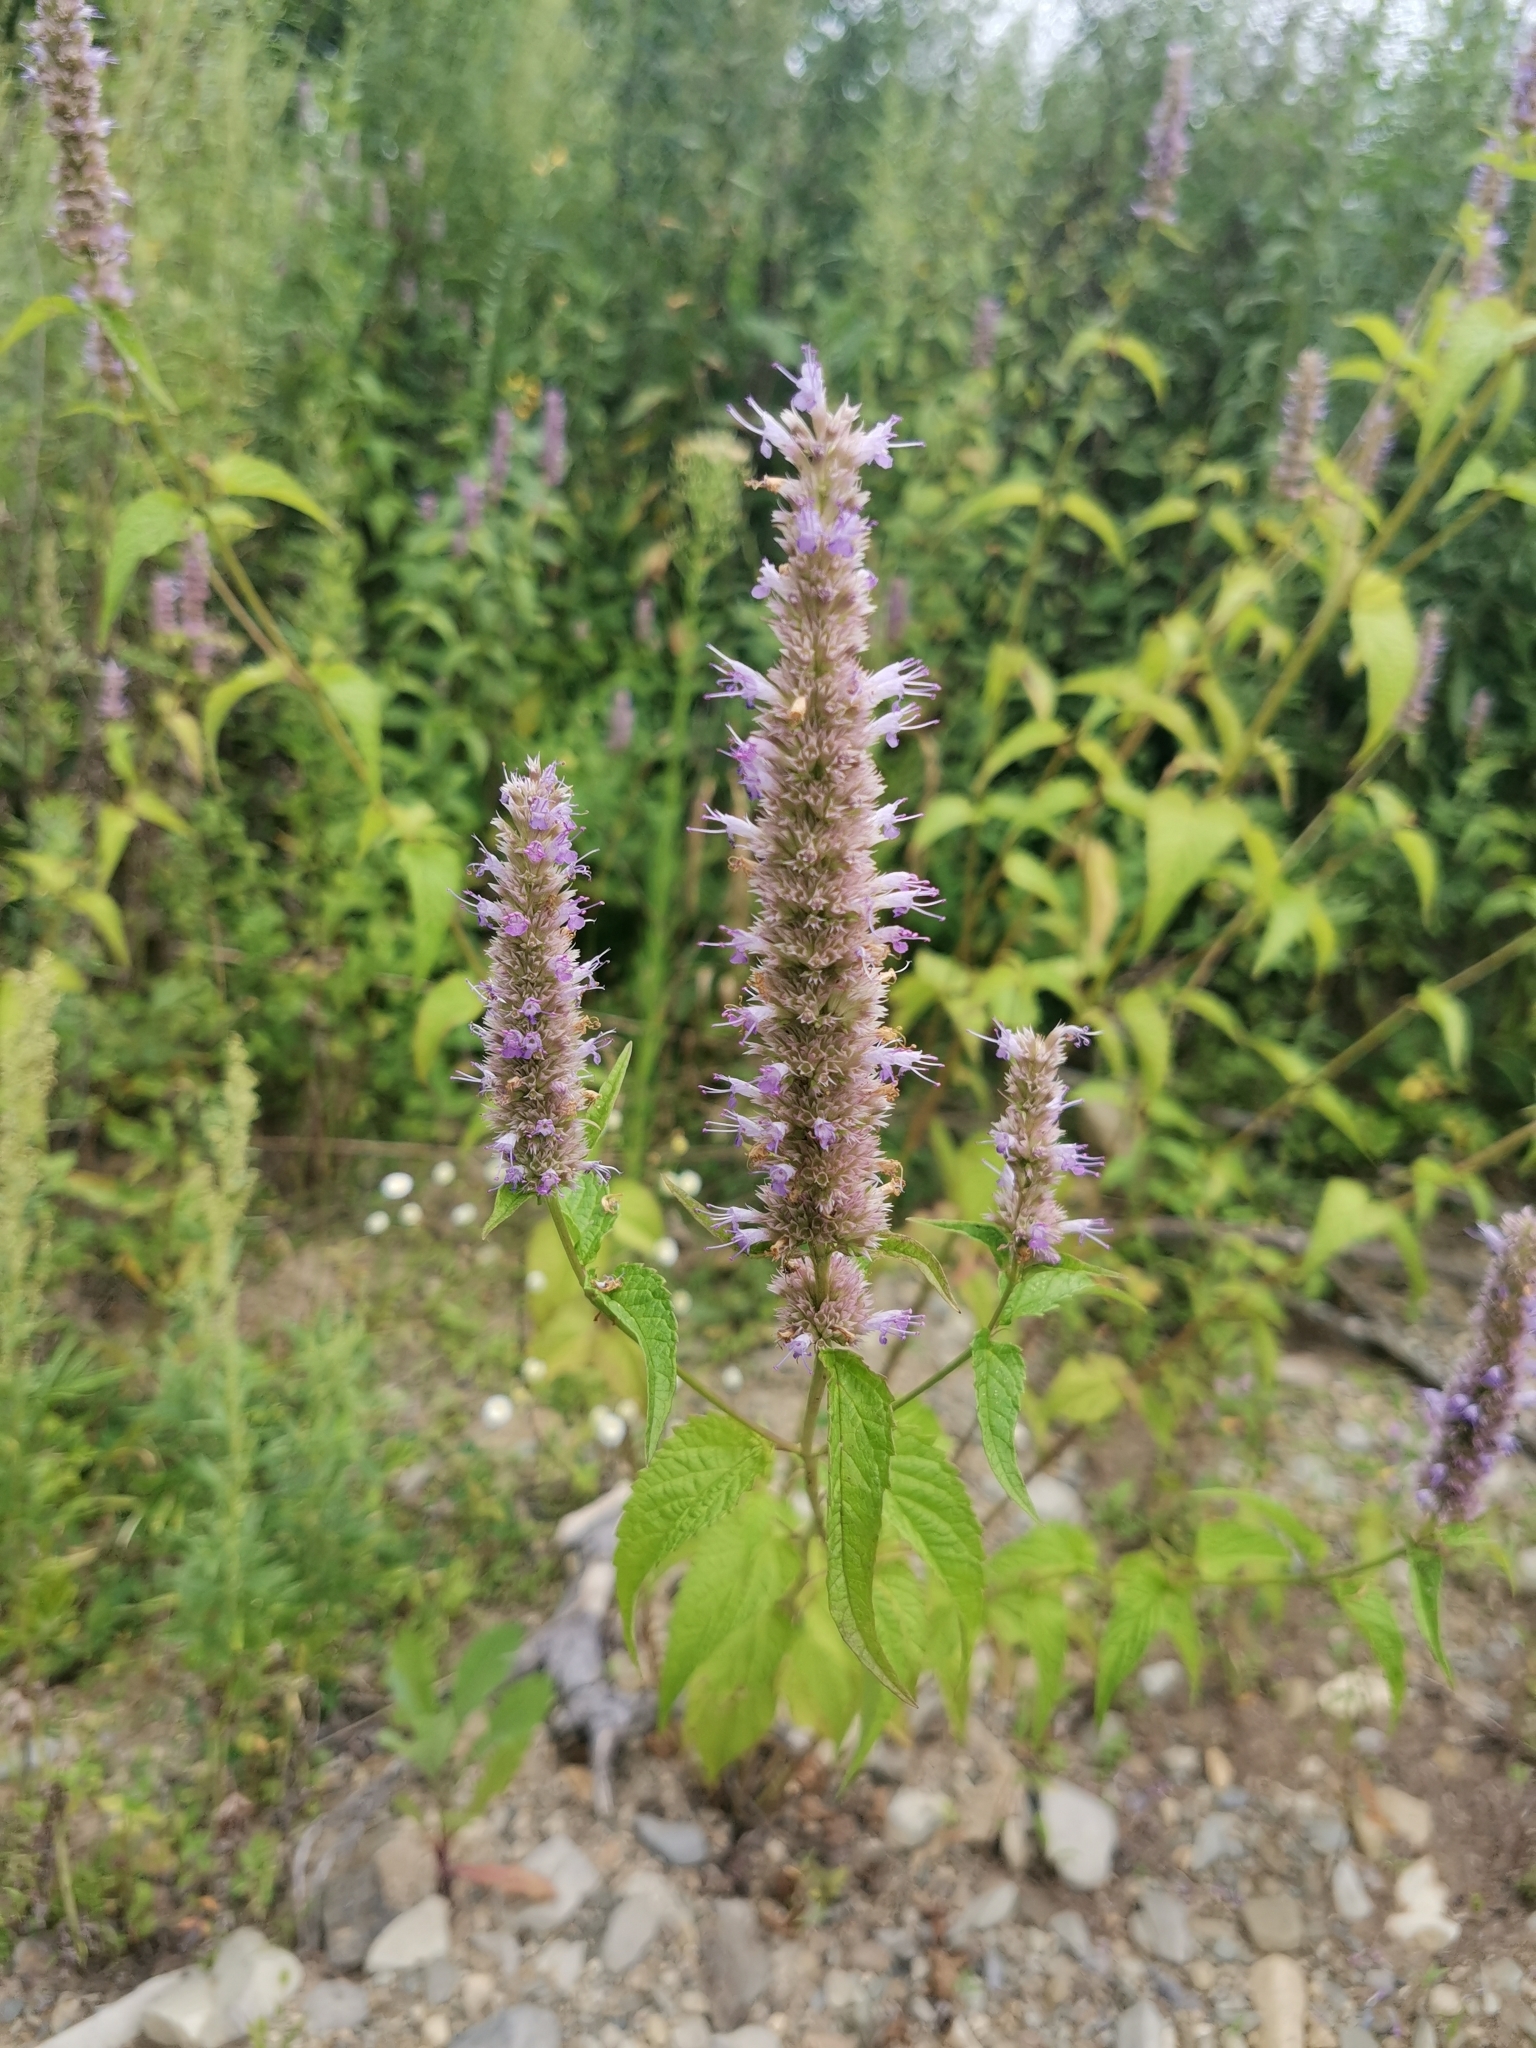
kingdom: Plantae
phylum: Tracheophyta
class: Magnoliopsida
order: Lamiales
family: Lamiaceae
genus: Agastache
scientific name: Agastache rugosa
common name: Mint
